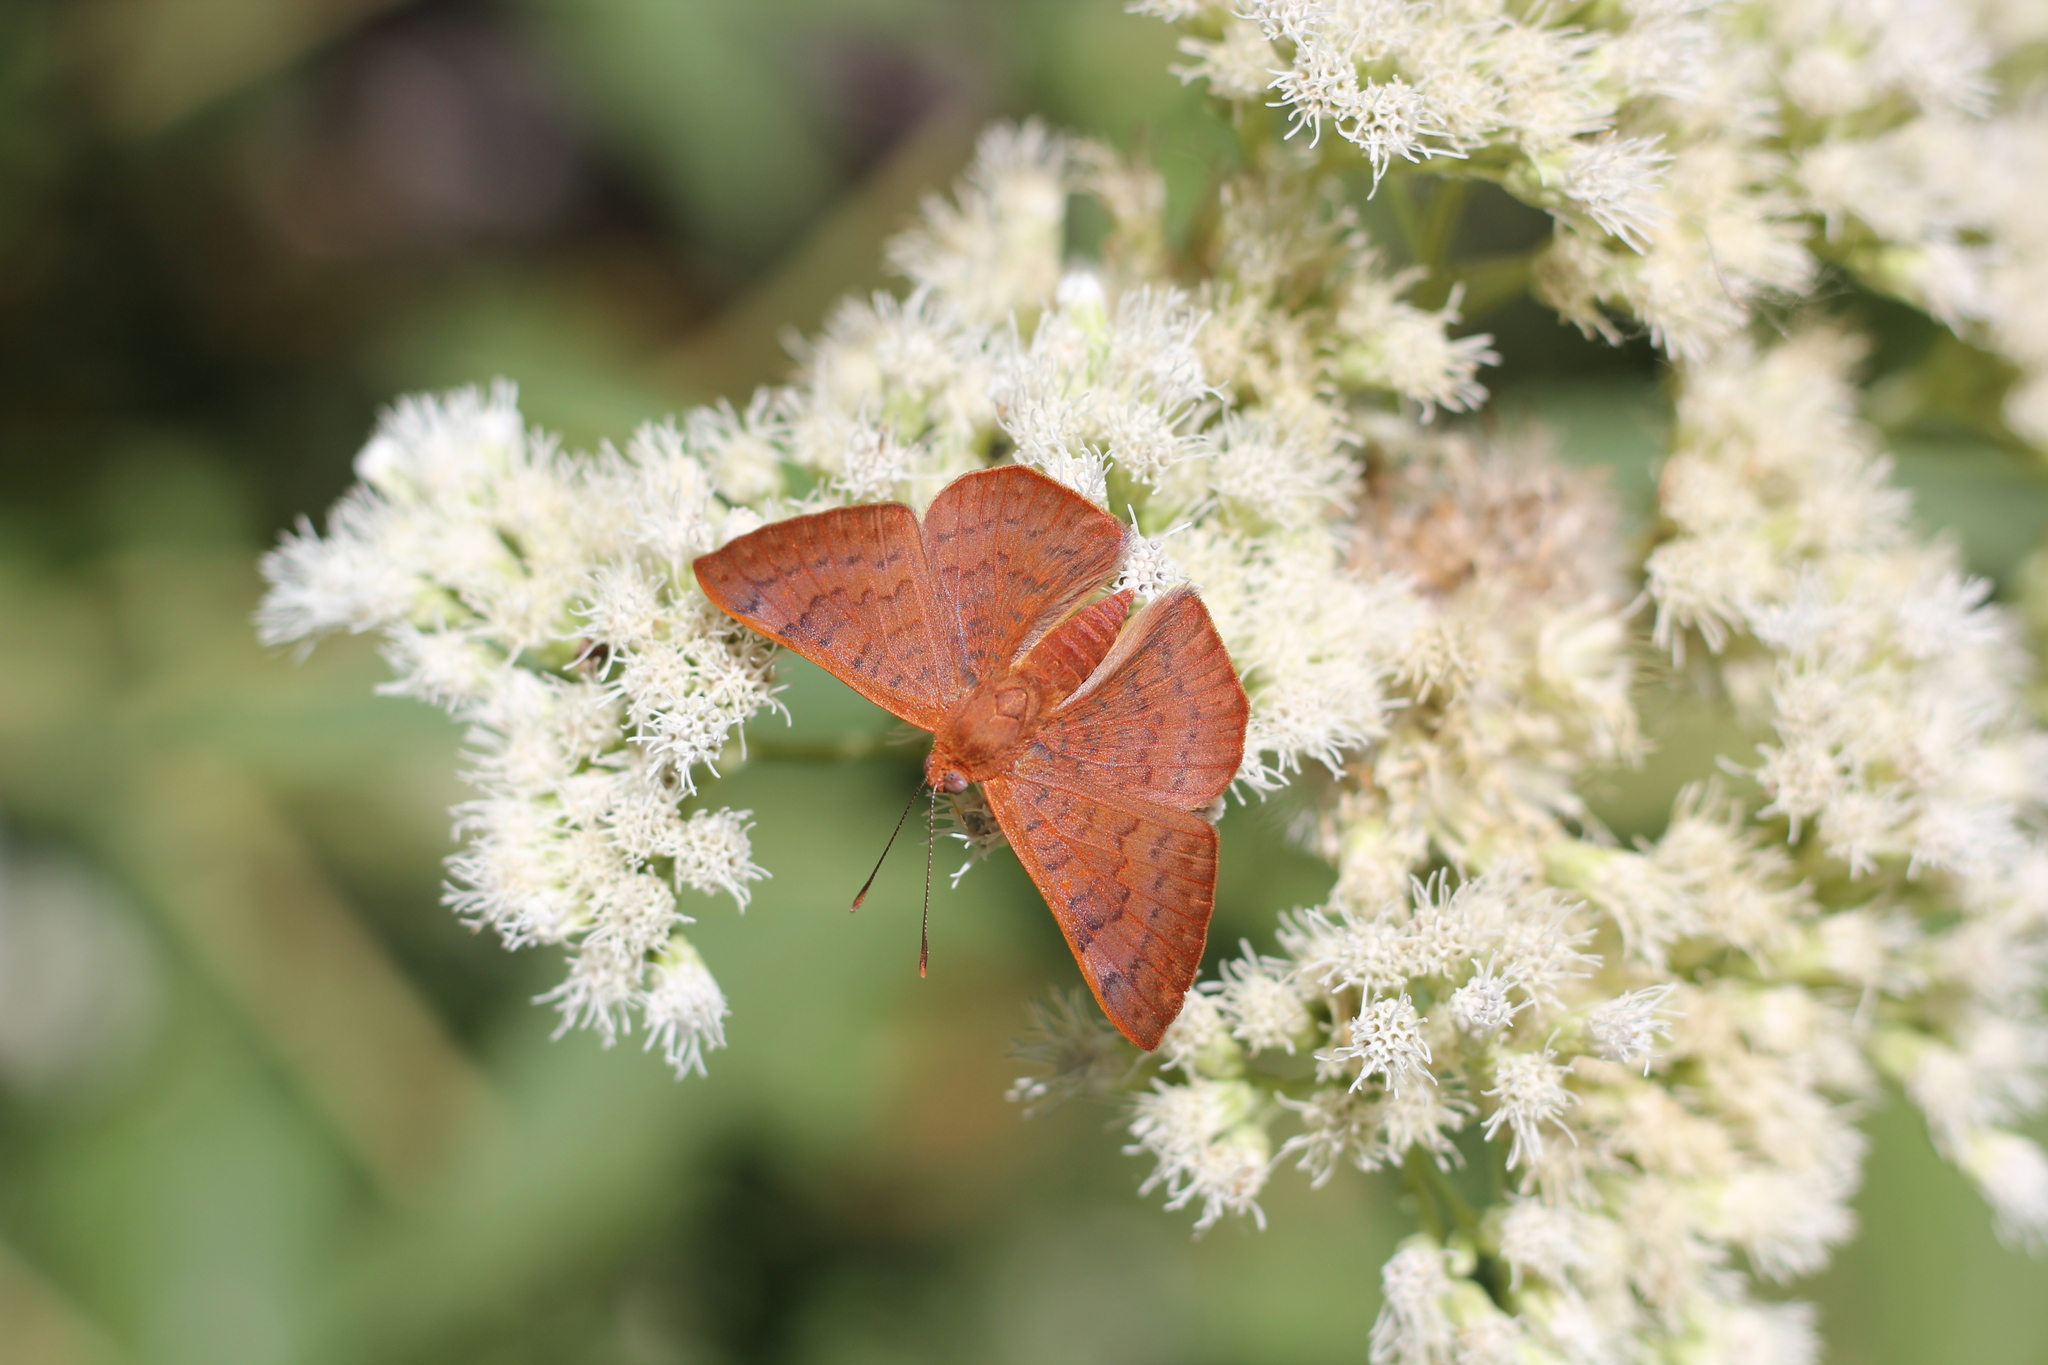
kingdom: Animalia
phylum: Arthropoda
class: Insecta
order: Lepidoptera
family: Lycaenidae
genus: Emesis
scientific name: Emesis russula
